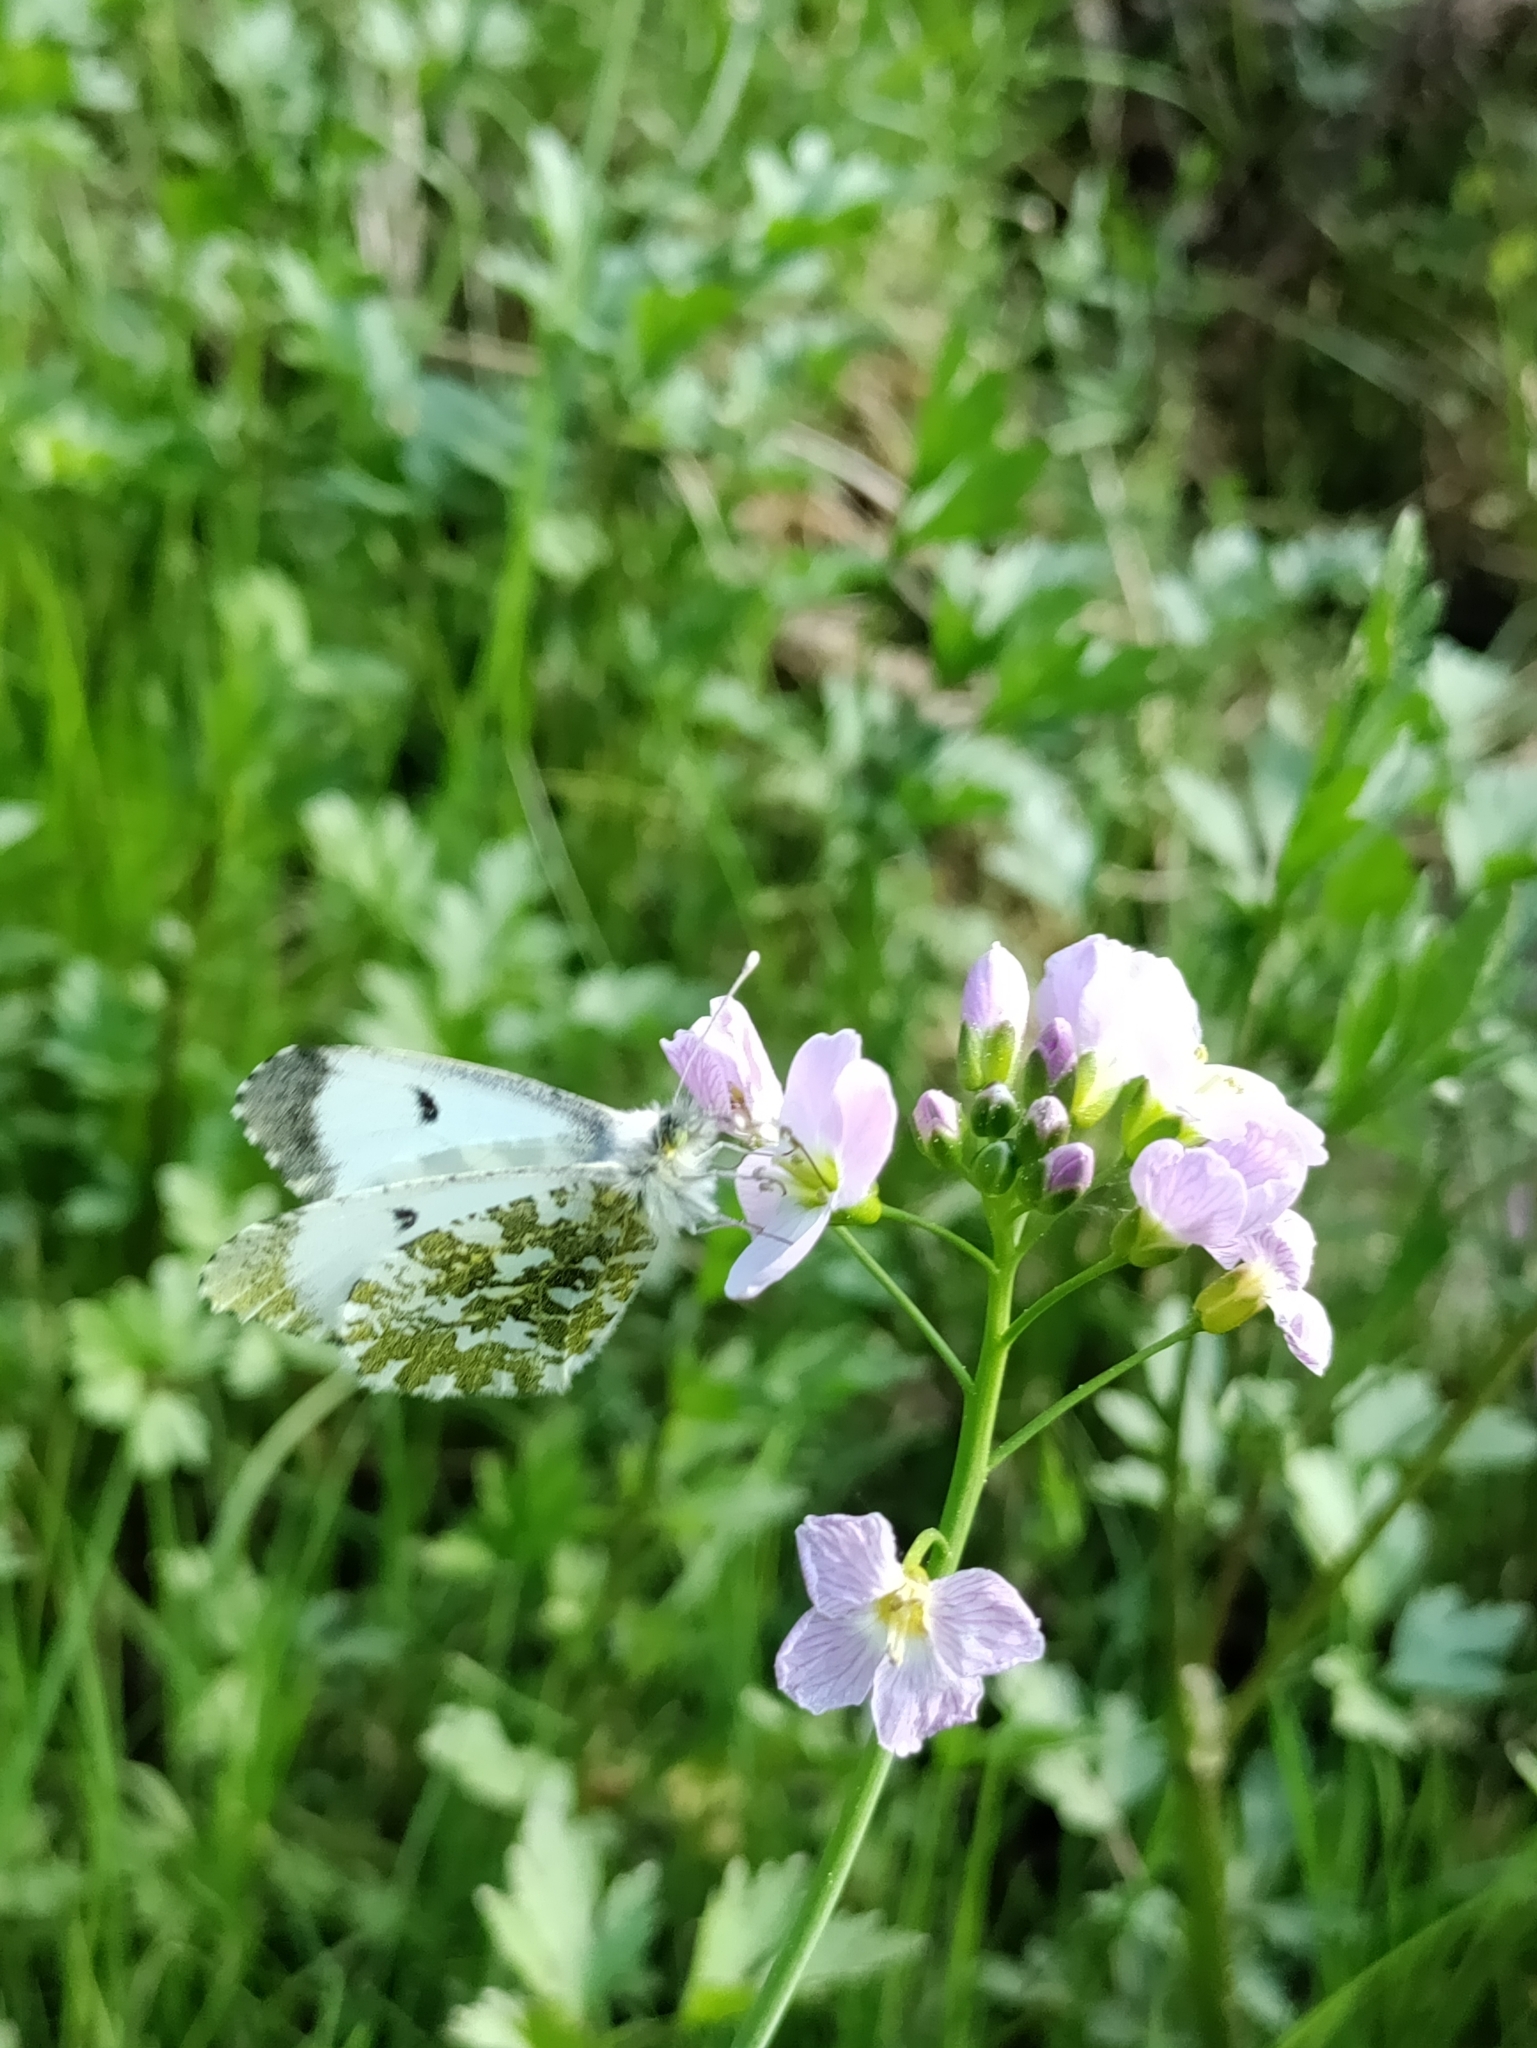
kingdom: Animalia
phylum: Arthropoda
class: Insecta
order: Lepidoptera
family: Pieridae
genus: Anthocharis
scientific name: Anthocharis cardamines
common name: Orange-tip
